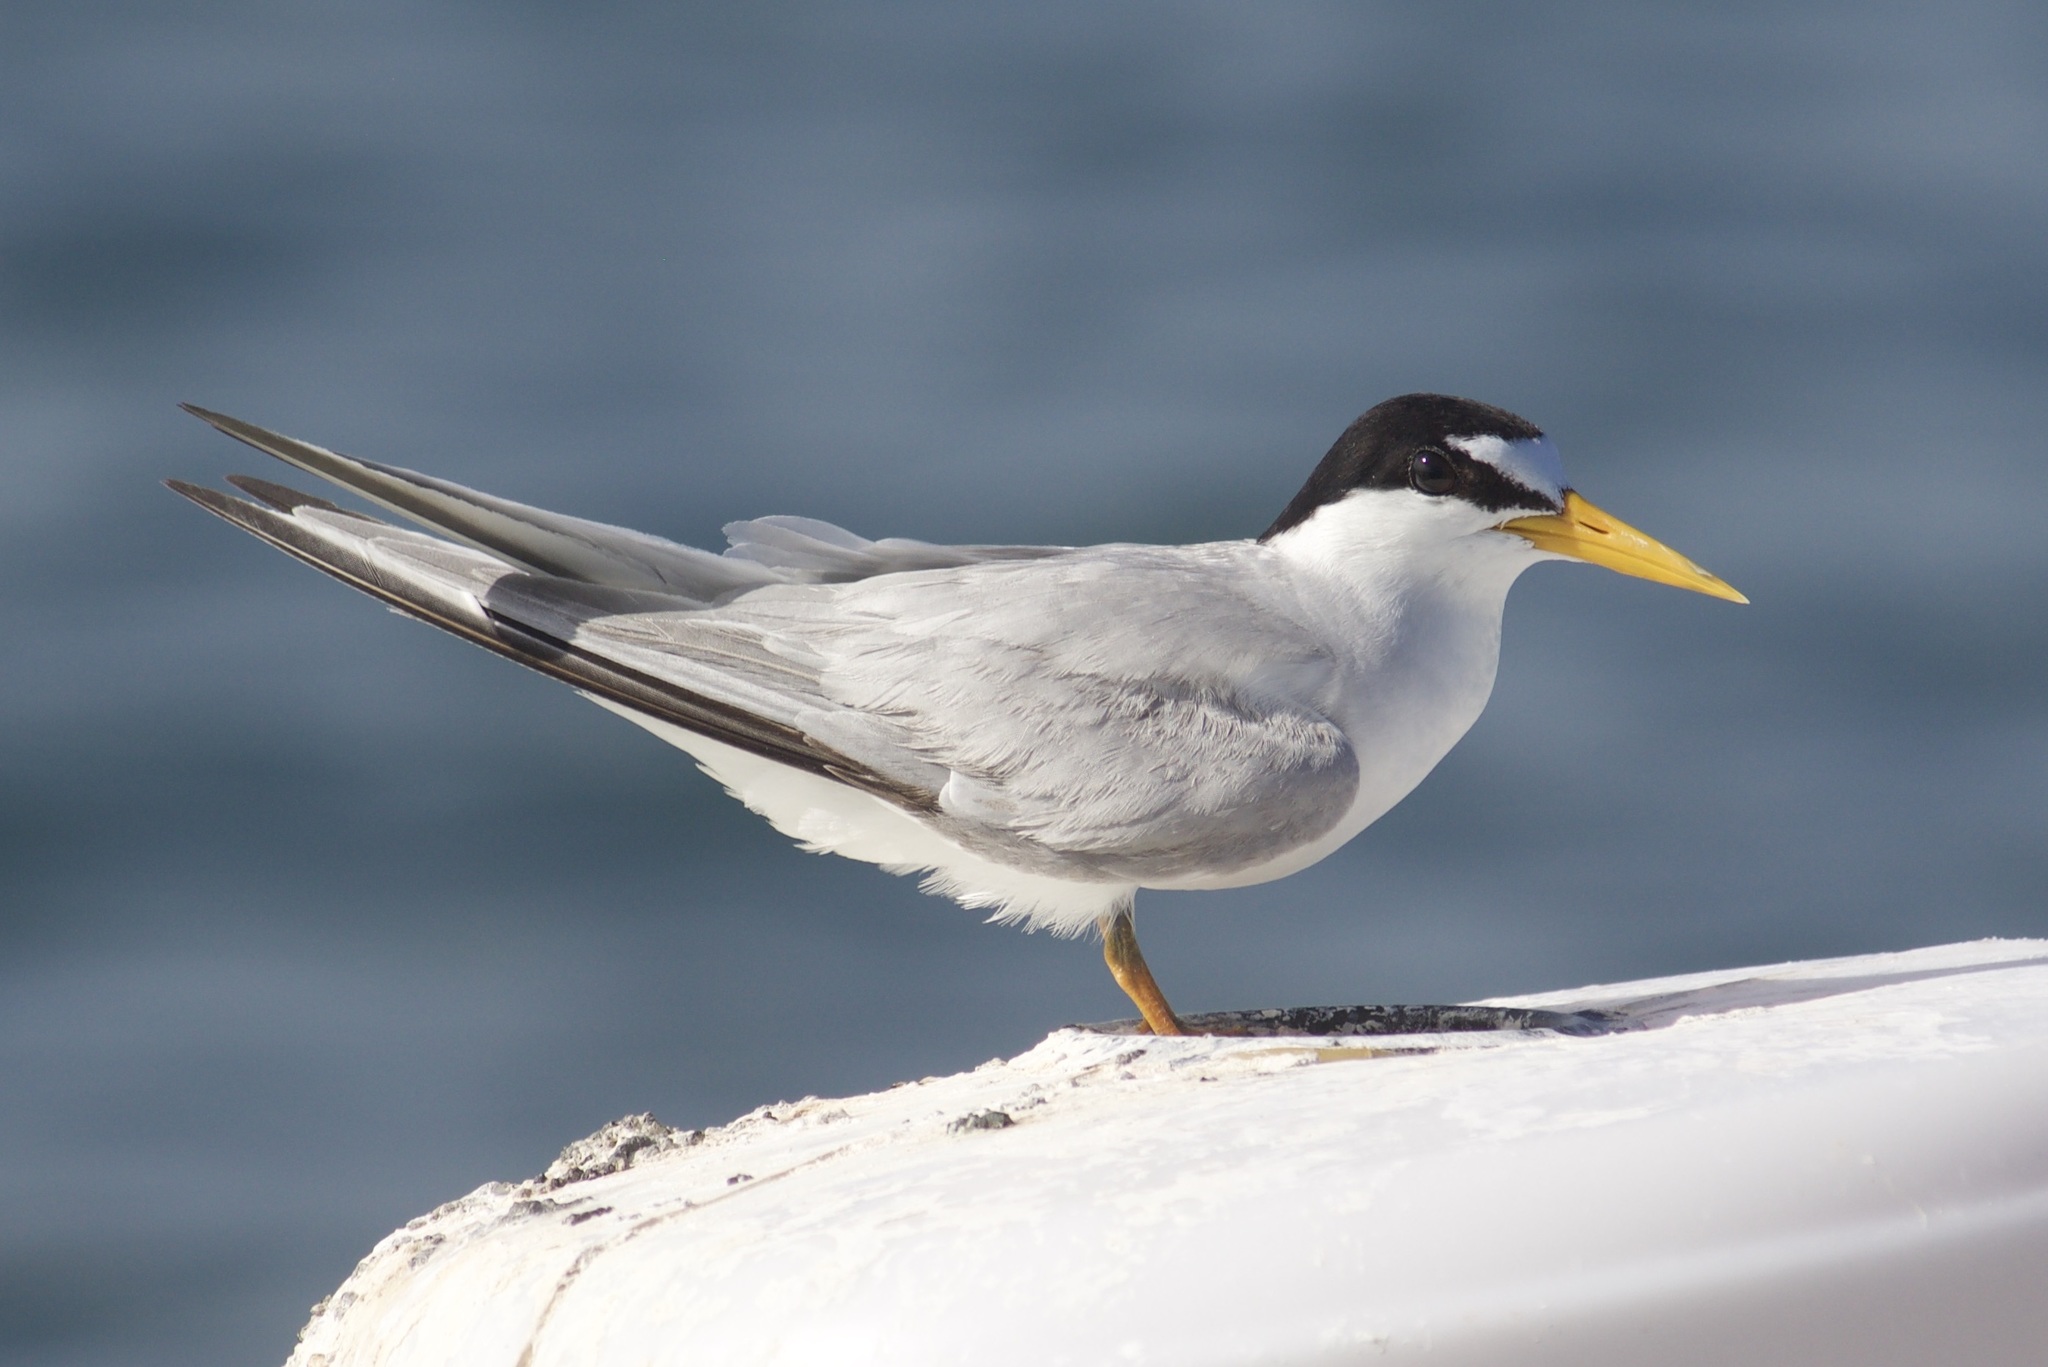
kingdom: Animalia
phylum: Chordata
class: Aves
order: Charadriiformes
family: Laridae
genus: Sternula
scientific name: Sternula antillarum
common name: Least tern
